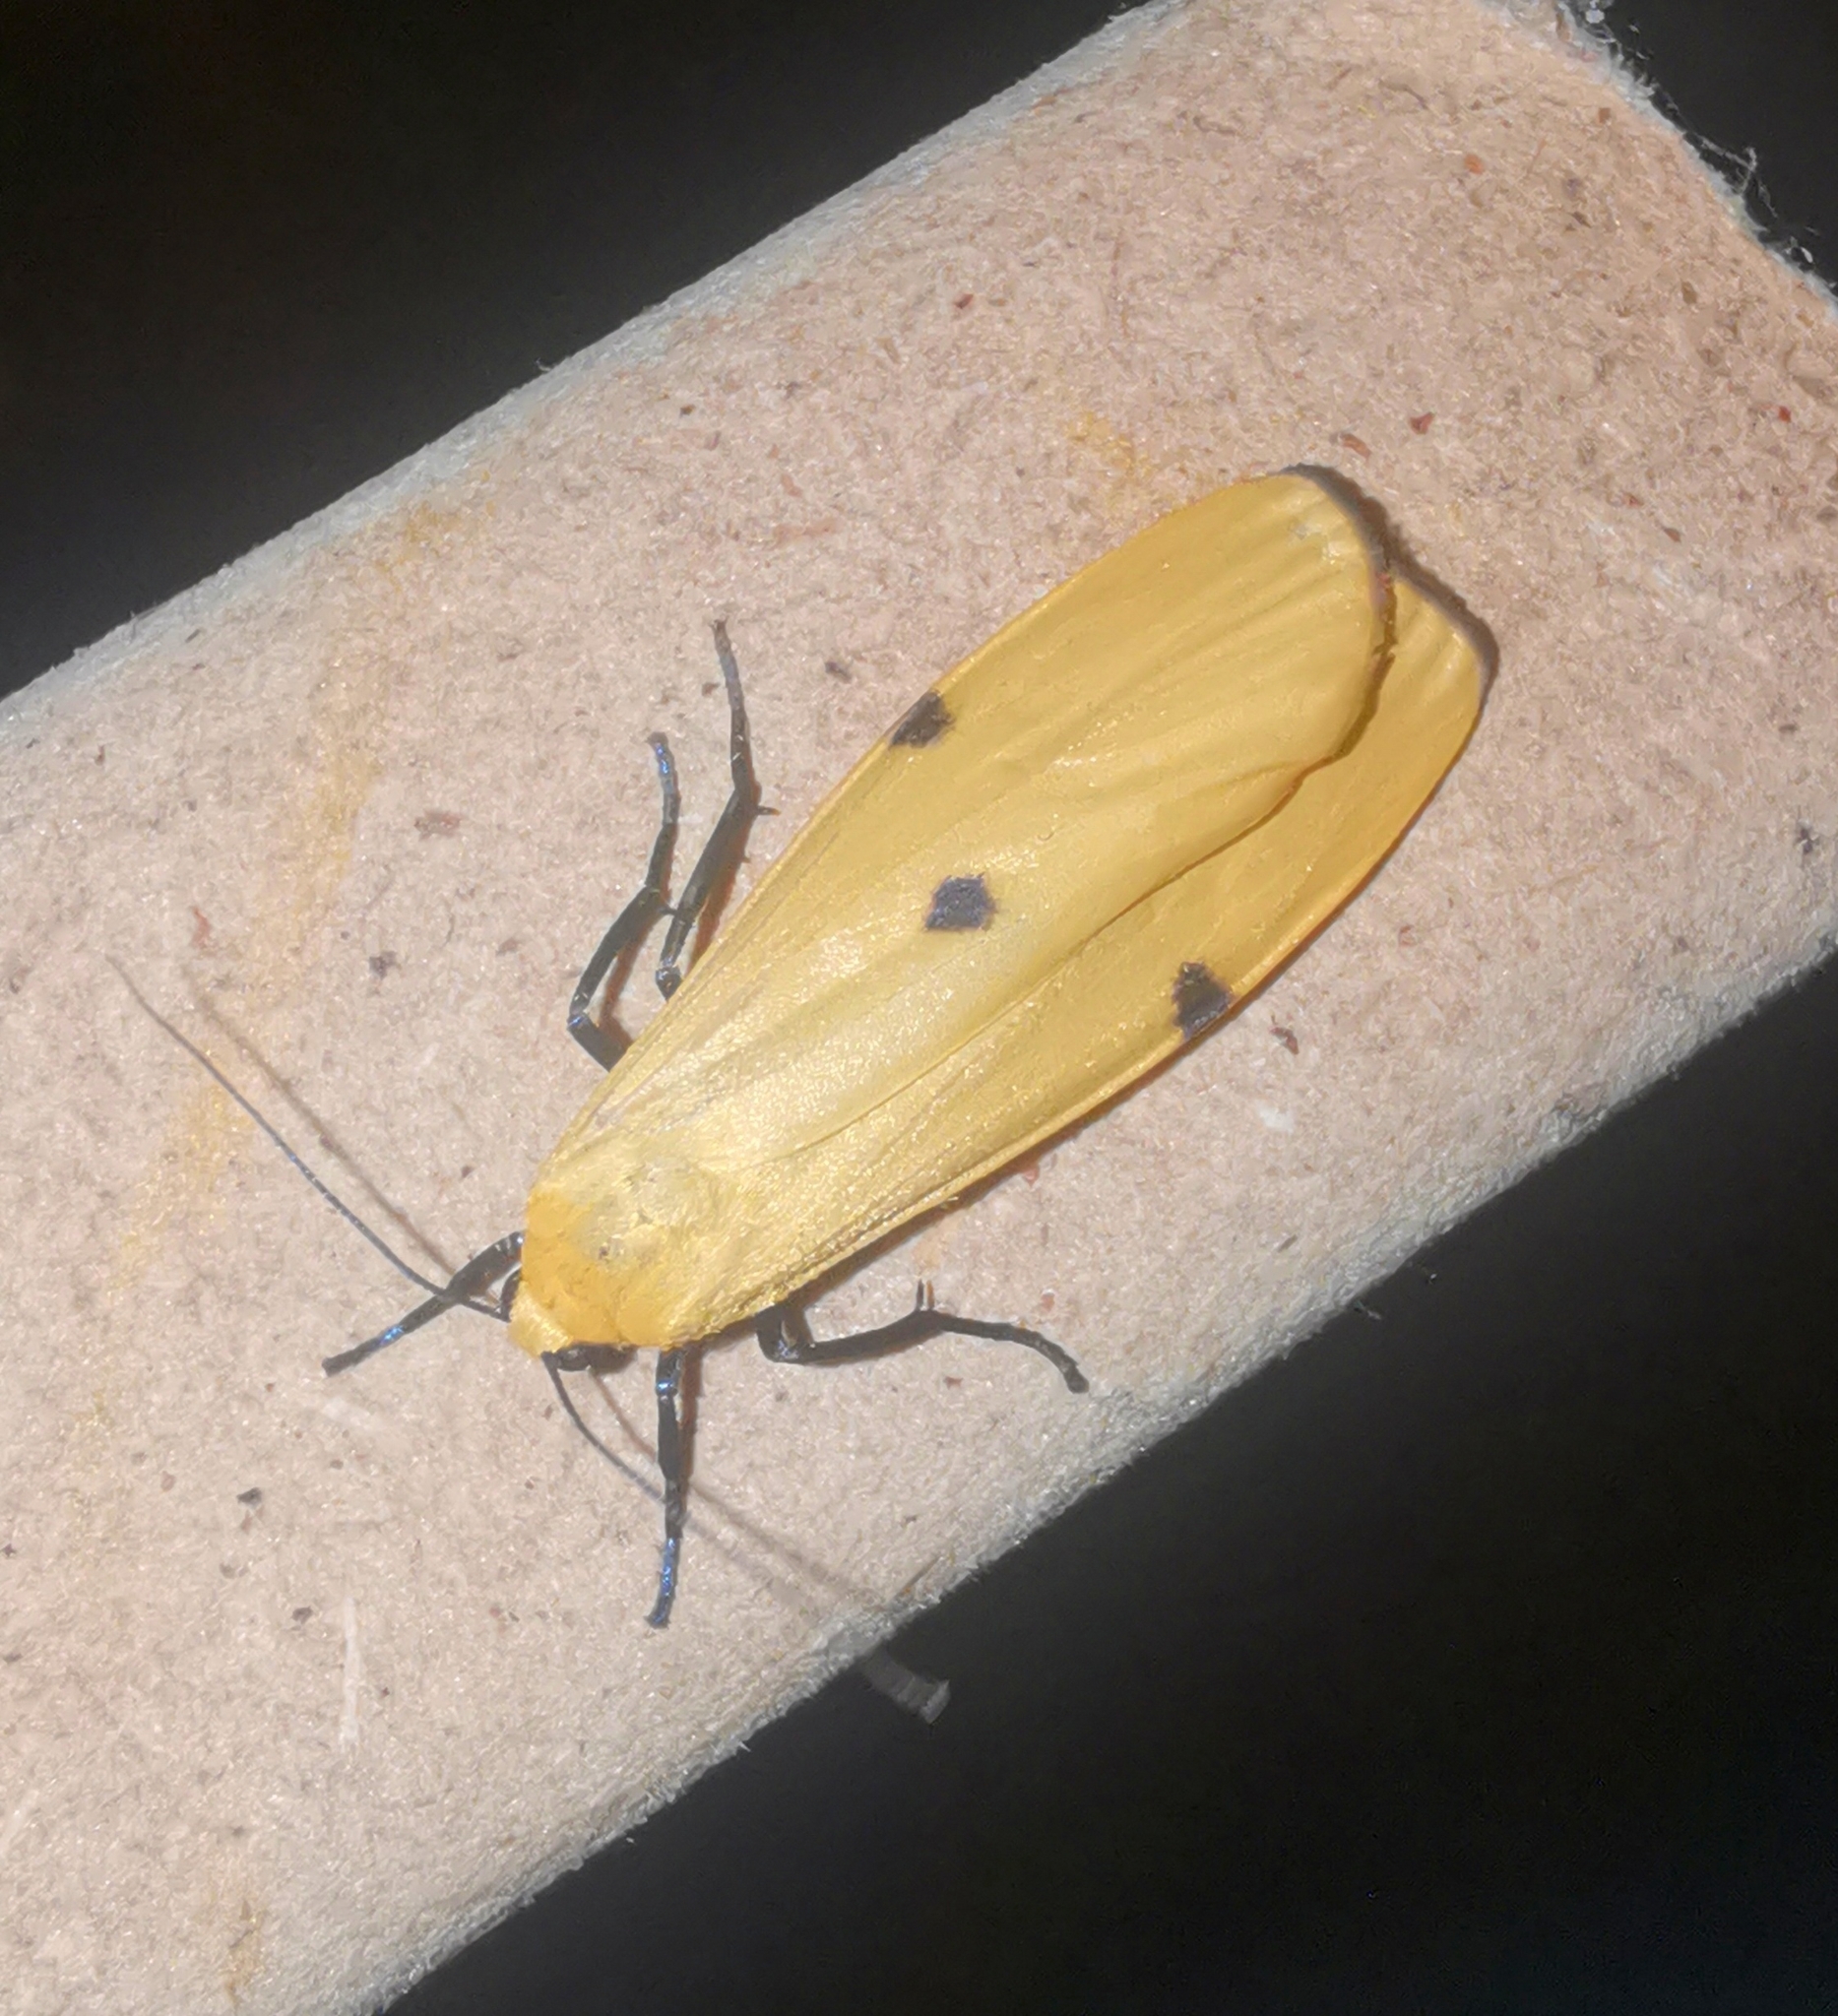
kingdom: Animalia
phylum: Arthropoda
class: Insecta
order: Lepidoptera
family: Erebidae
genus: Lithosia
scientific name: Lithosia quadra
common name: Four-spotted footman
